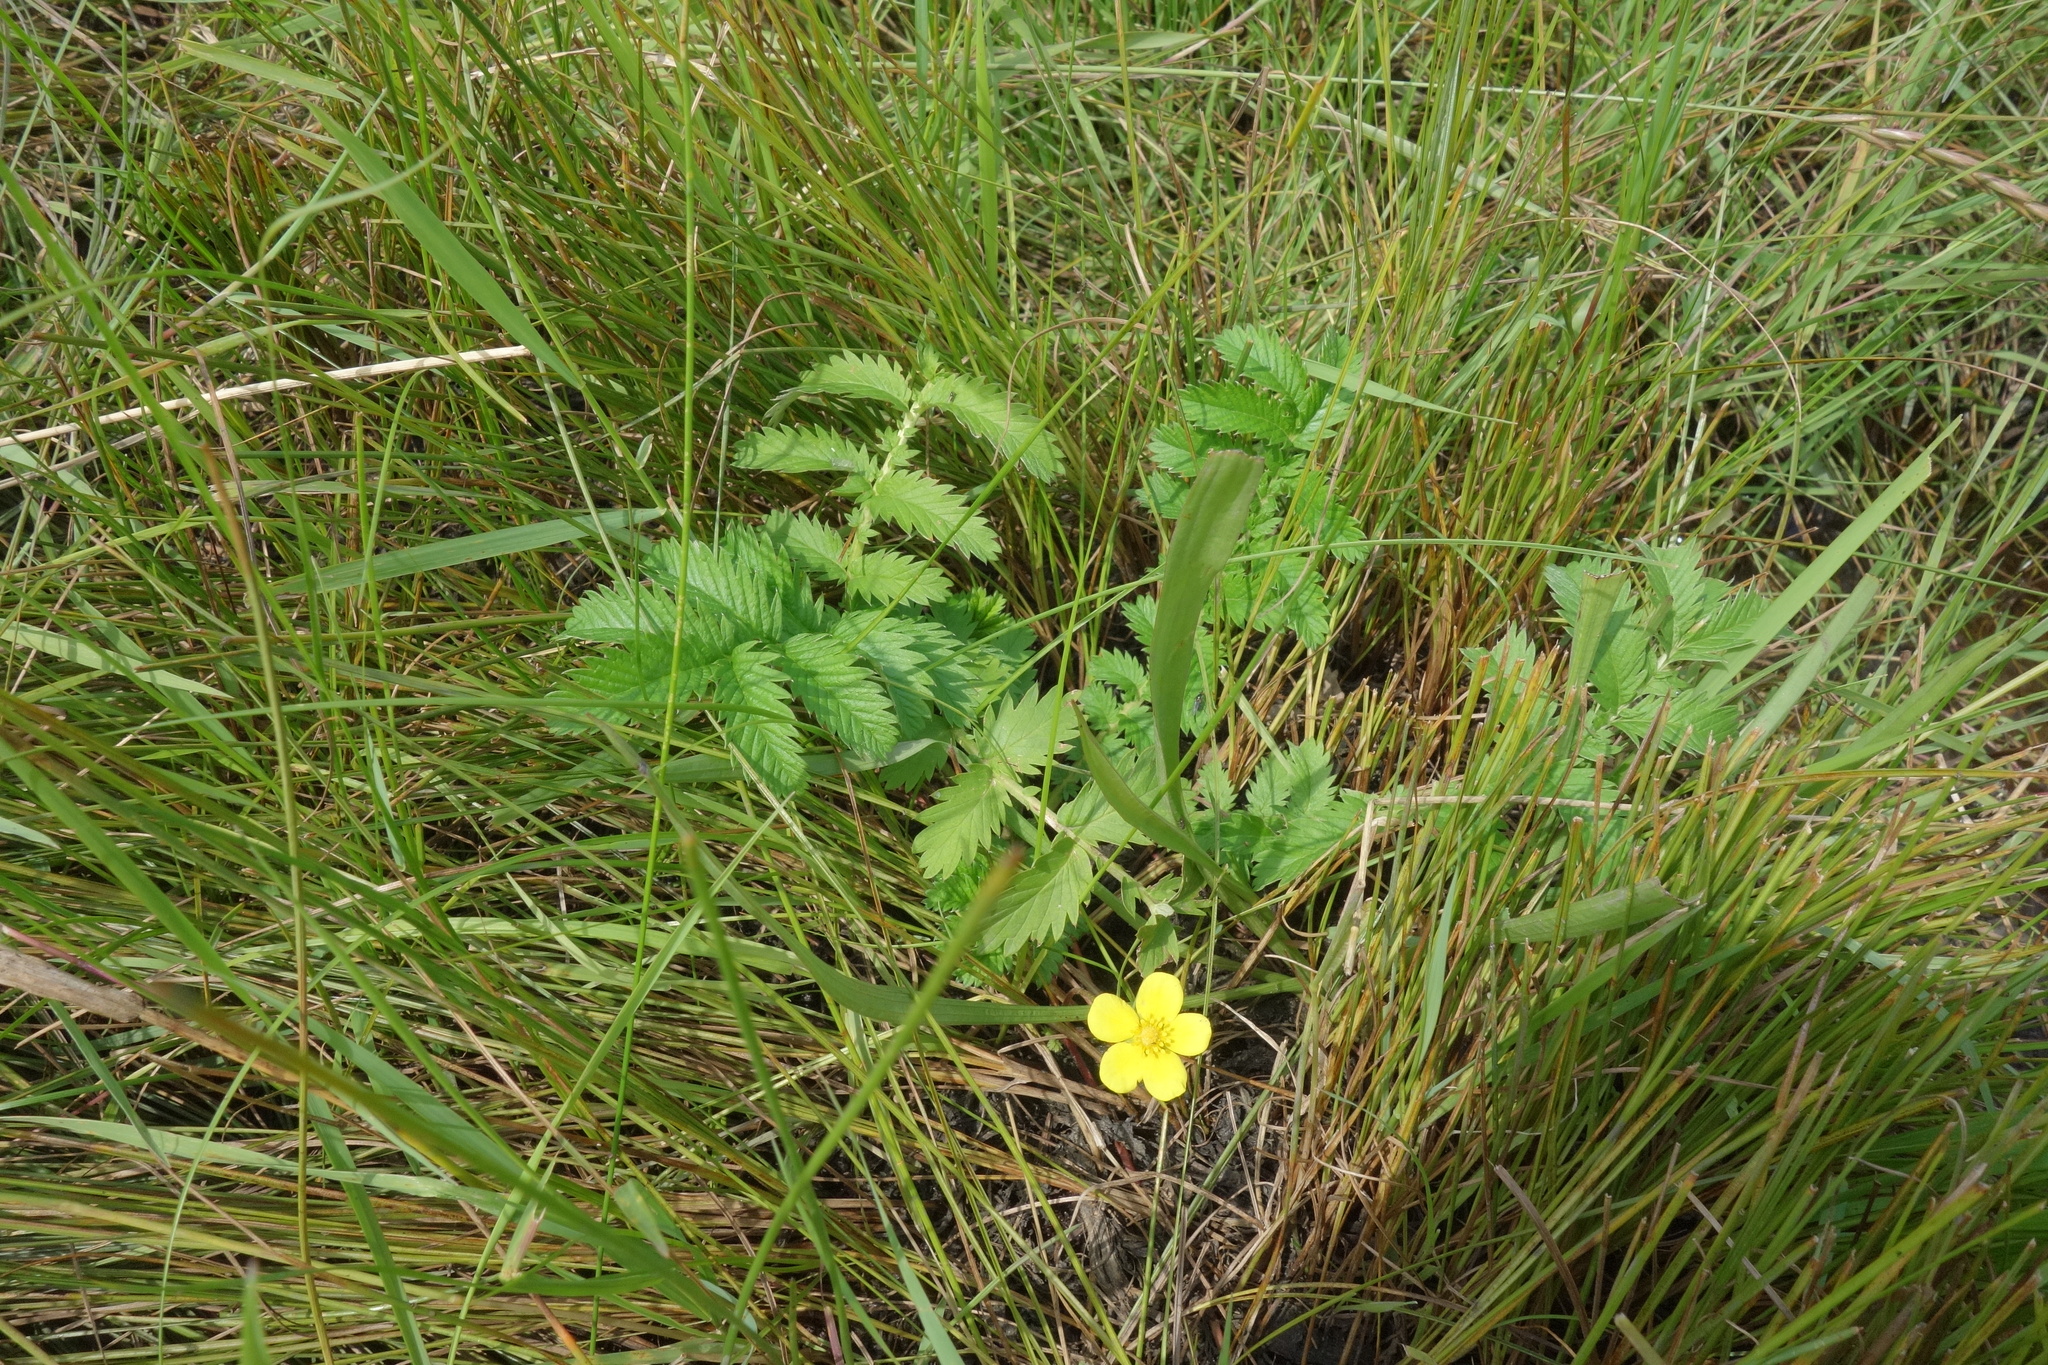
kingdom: Plantae
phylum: Tracheophyta
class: Magnoliopsida
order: Rosales
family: Rosaceae
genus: Argentina
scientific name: Argentina anserina
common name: Common silverweed
